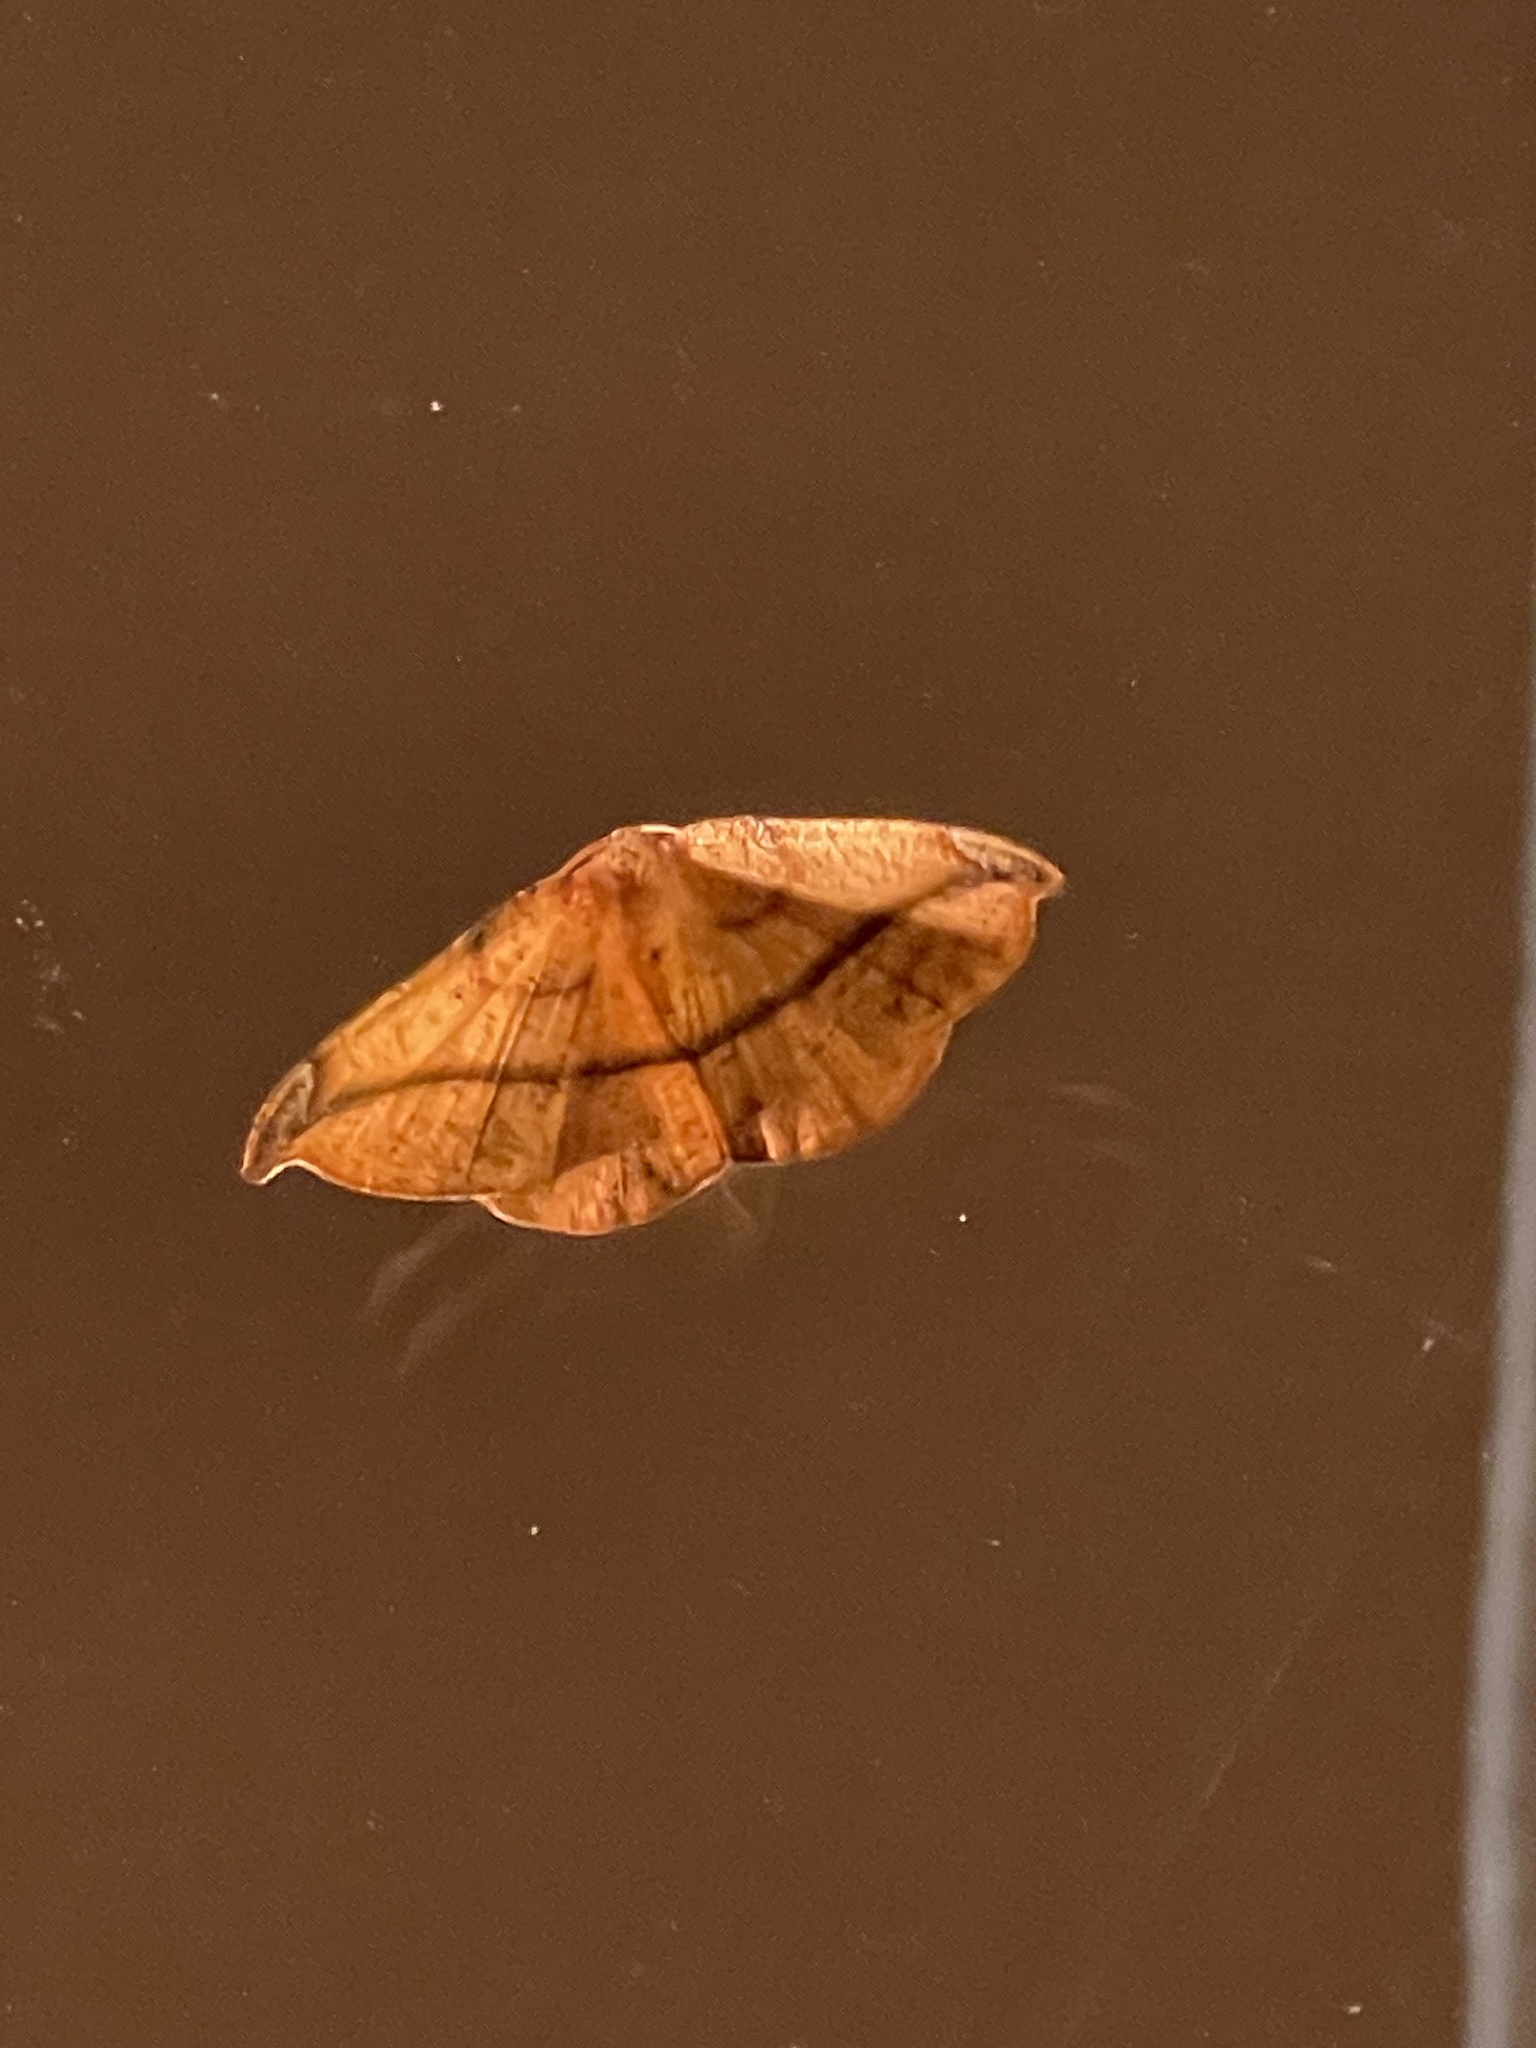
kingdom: Animalia
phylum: Arthropoda
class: Insecta
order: Lepidoptera
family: Geometridae
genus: Patalene
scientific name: Patalene olyzonaria
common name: Juniper geometer moth
